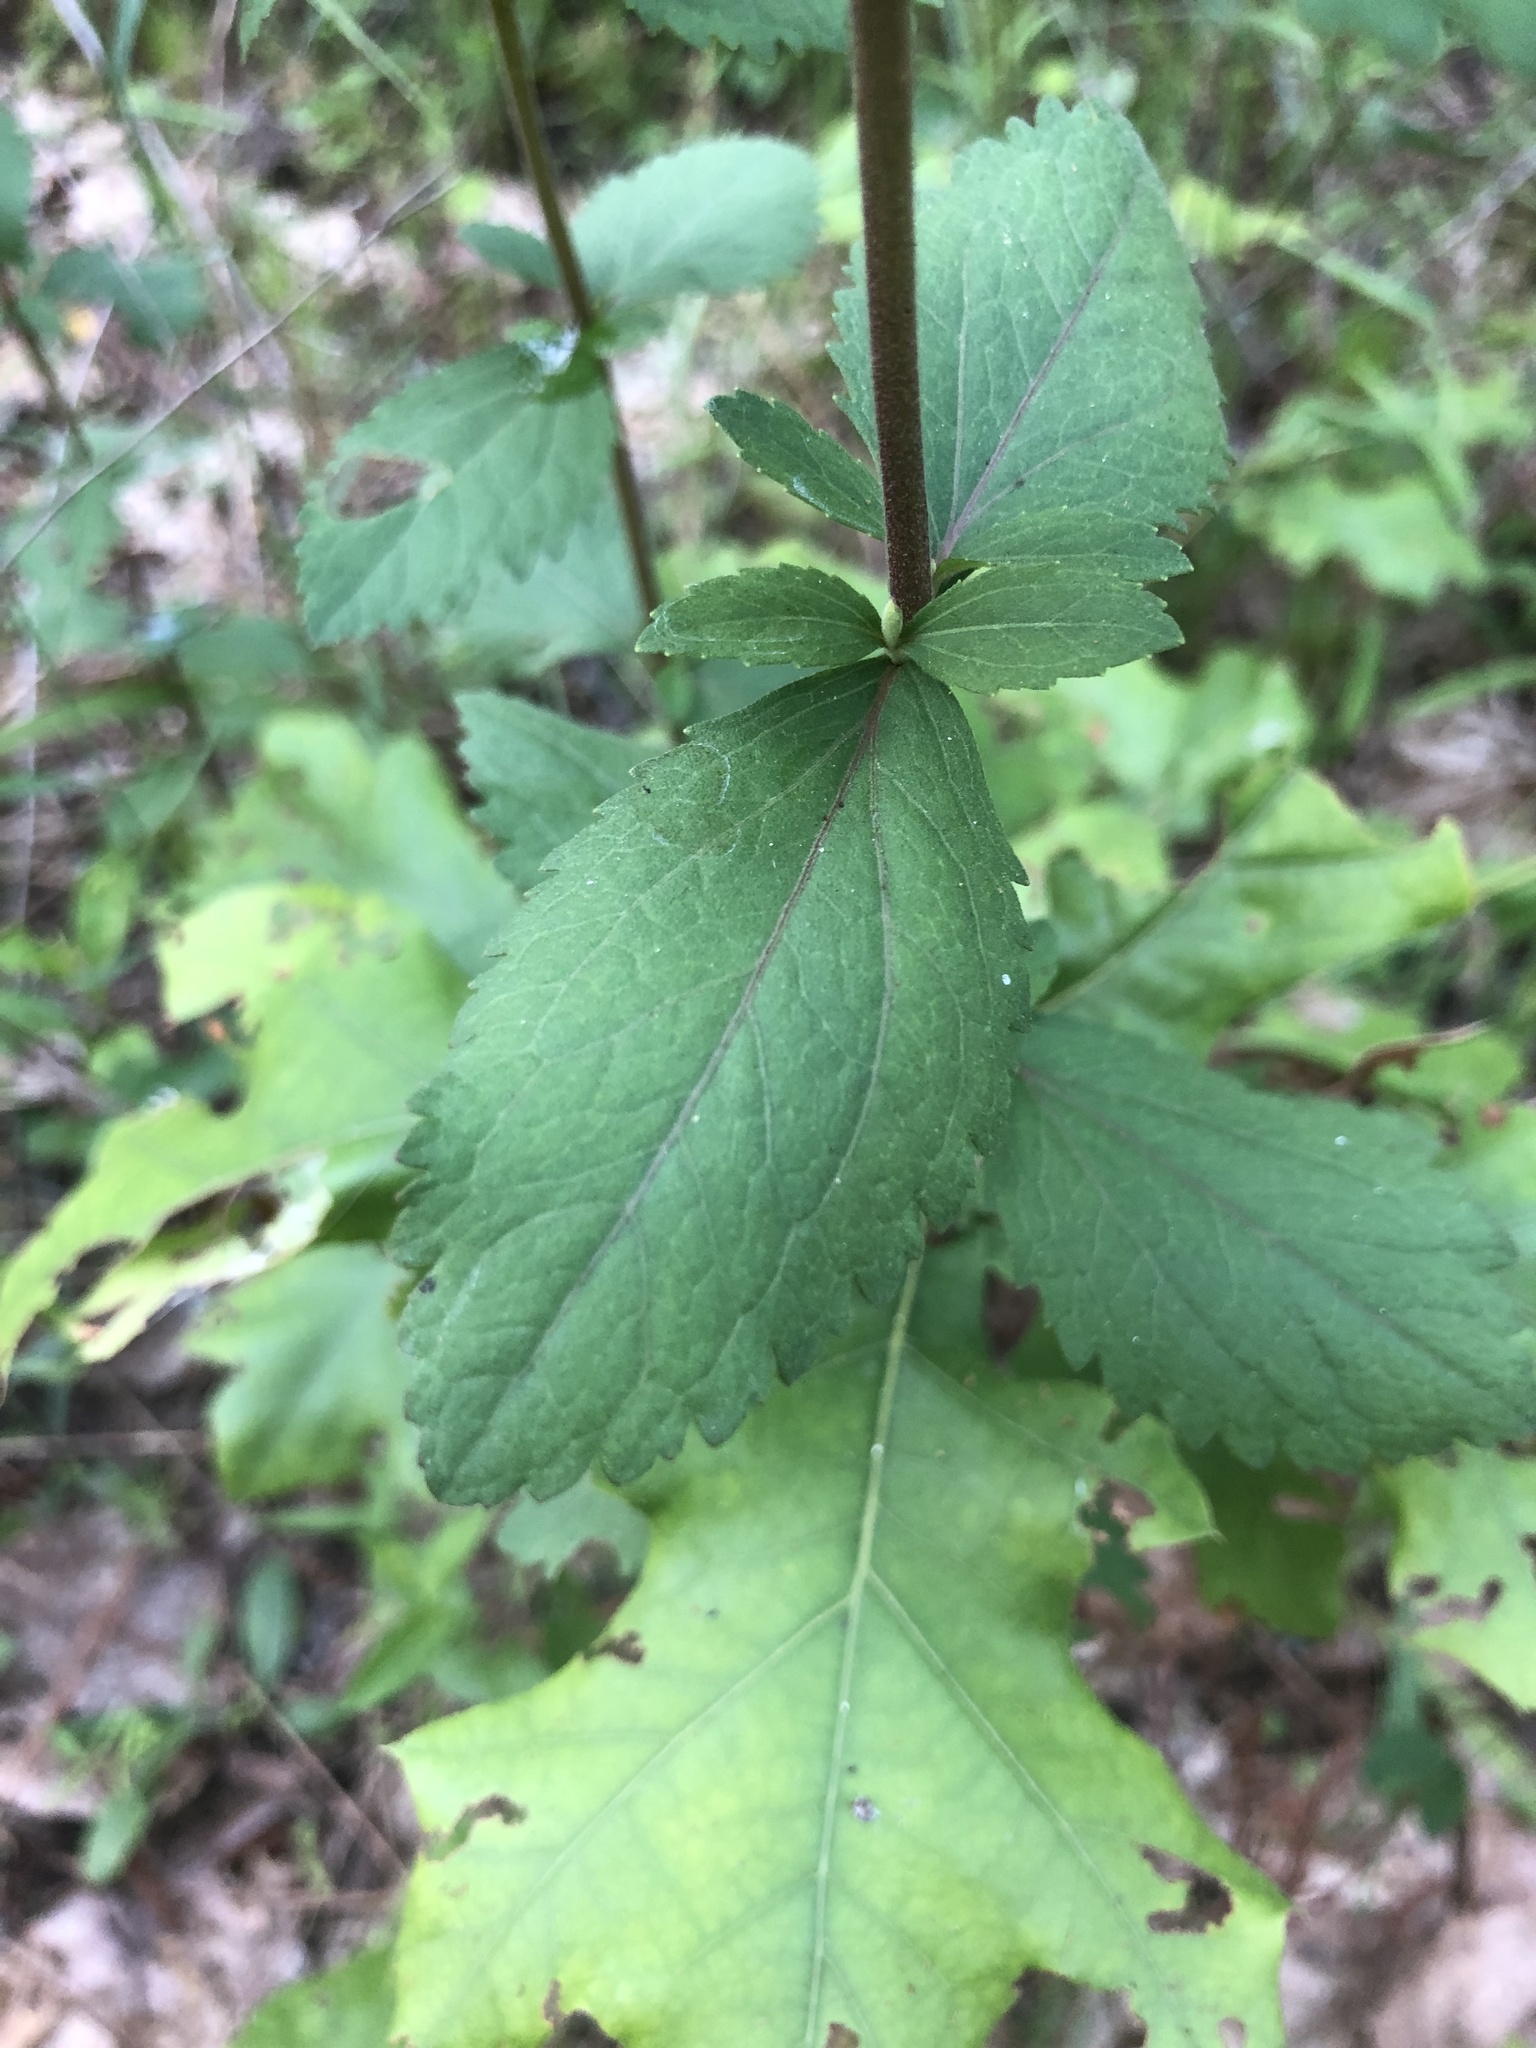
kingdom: Plantae
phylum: Tracheophyta
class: Magnoliopsida
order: Asterales
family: Asteraceae
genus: Eupatorium
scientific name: Eupatorium rotundifolium
